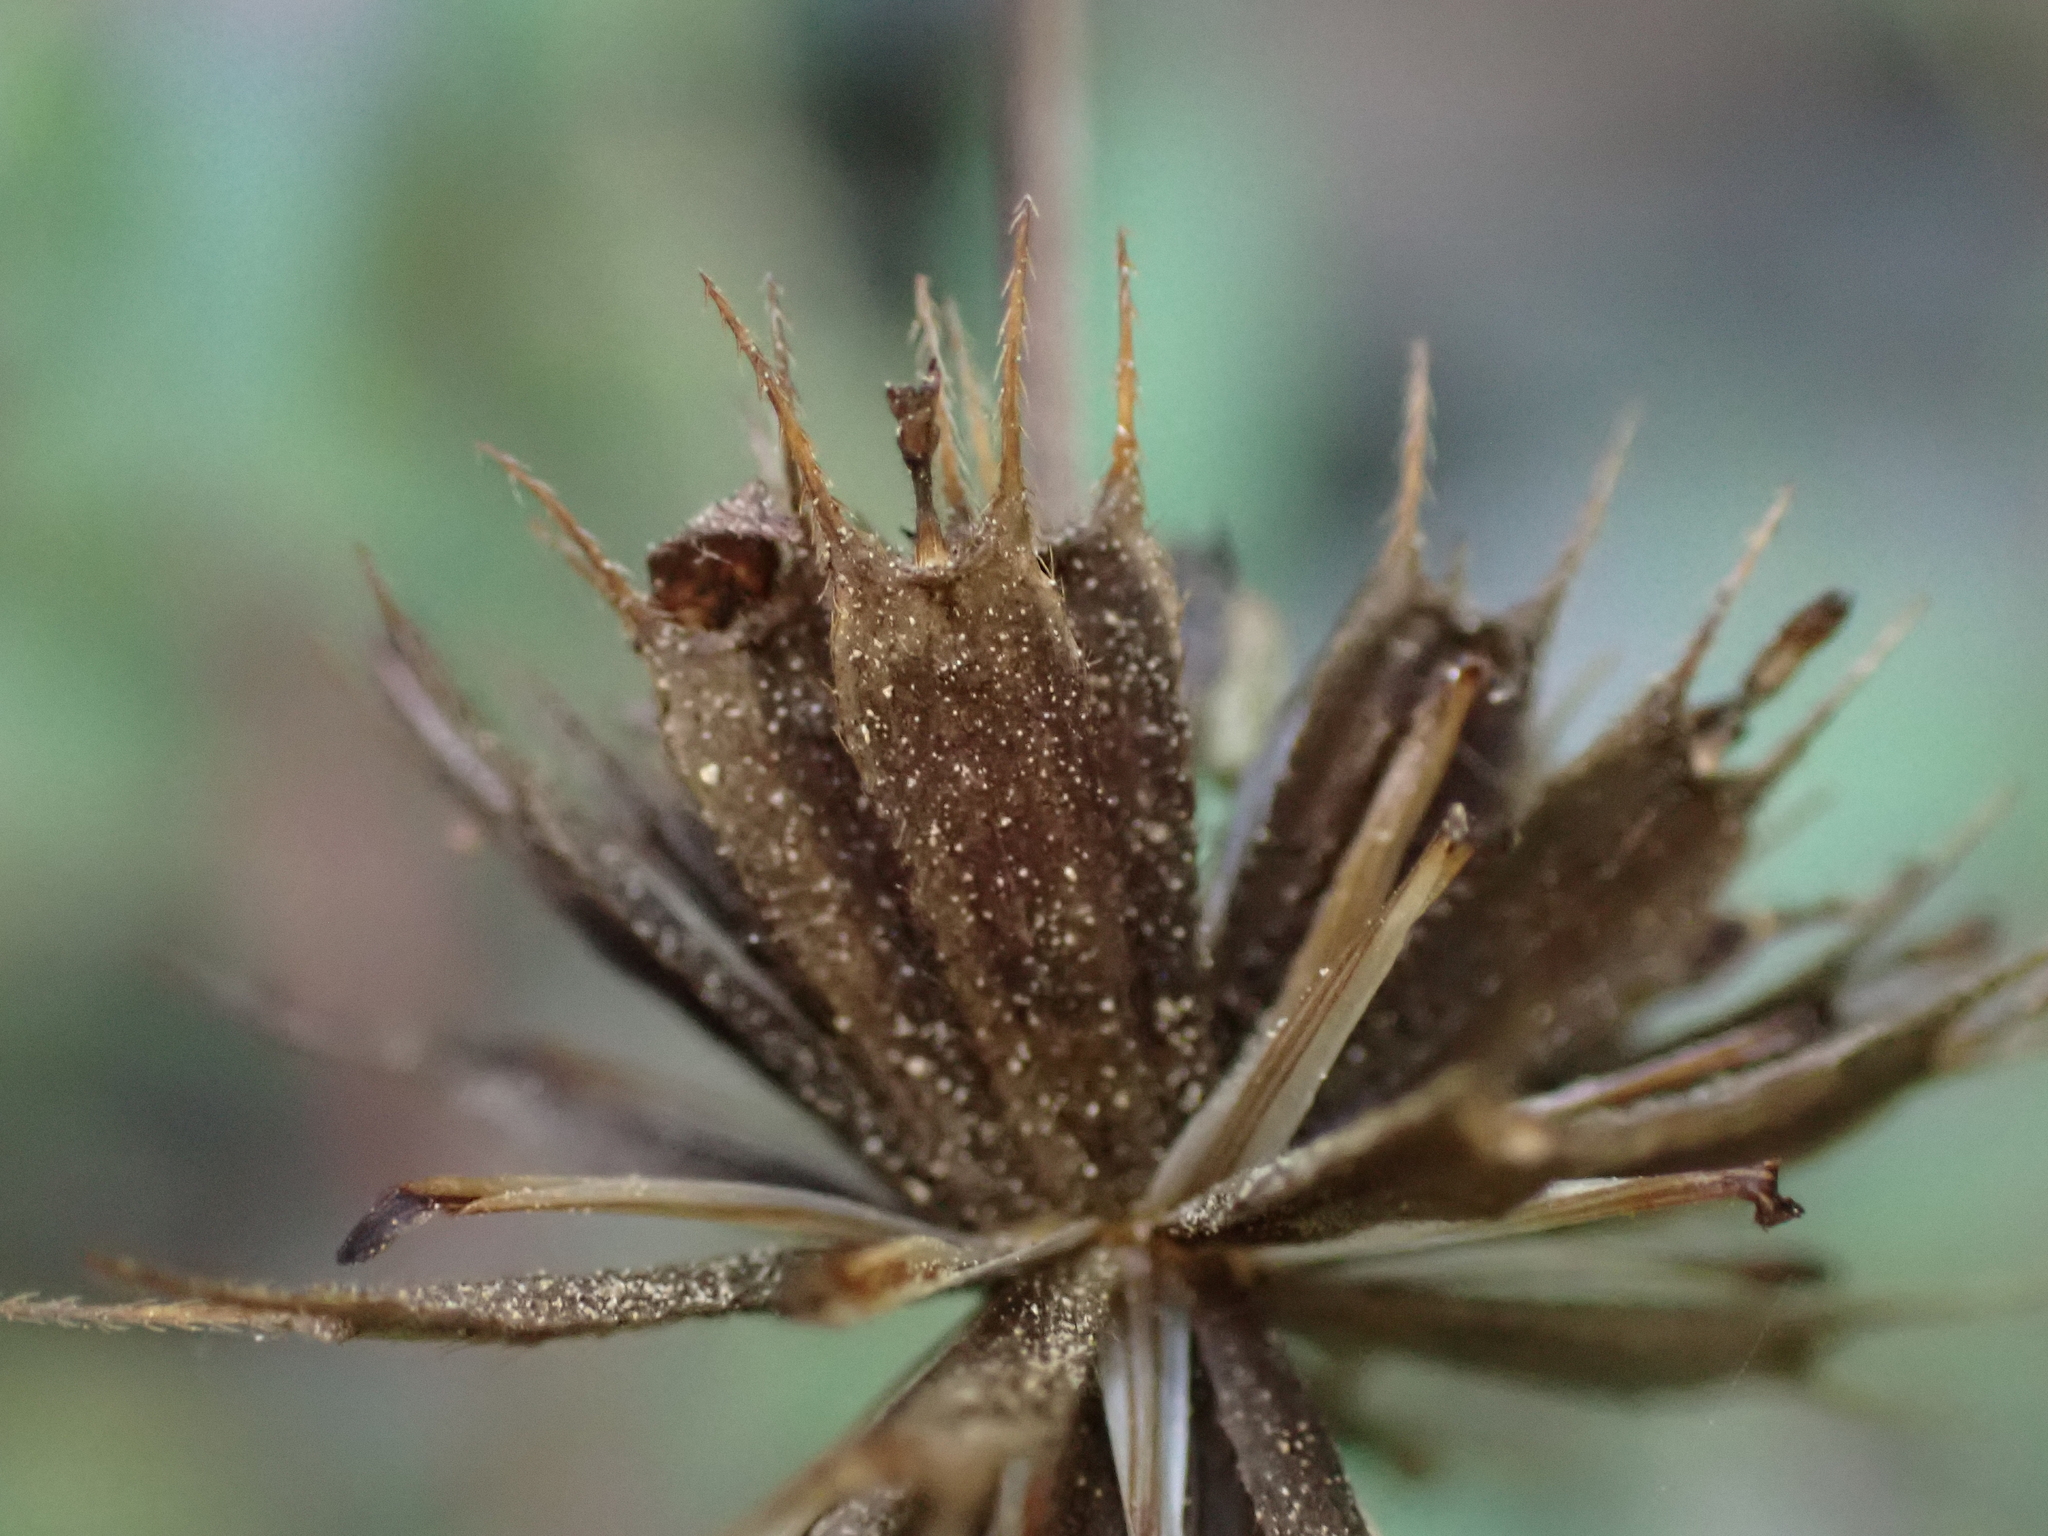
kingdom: Plantae
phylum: Tracheophyta
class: Magnoliopsida
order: Asterales
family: Asteraceae
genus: Bidens
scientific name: Bidens frondosa
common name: Beggarticks
